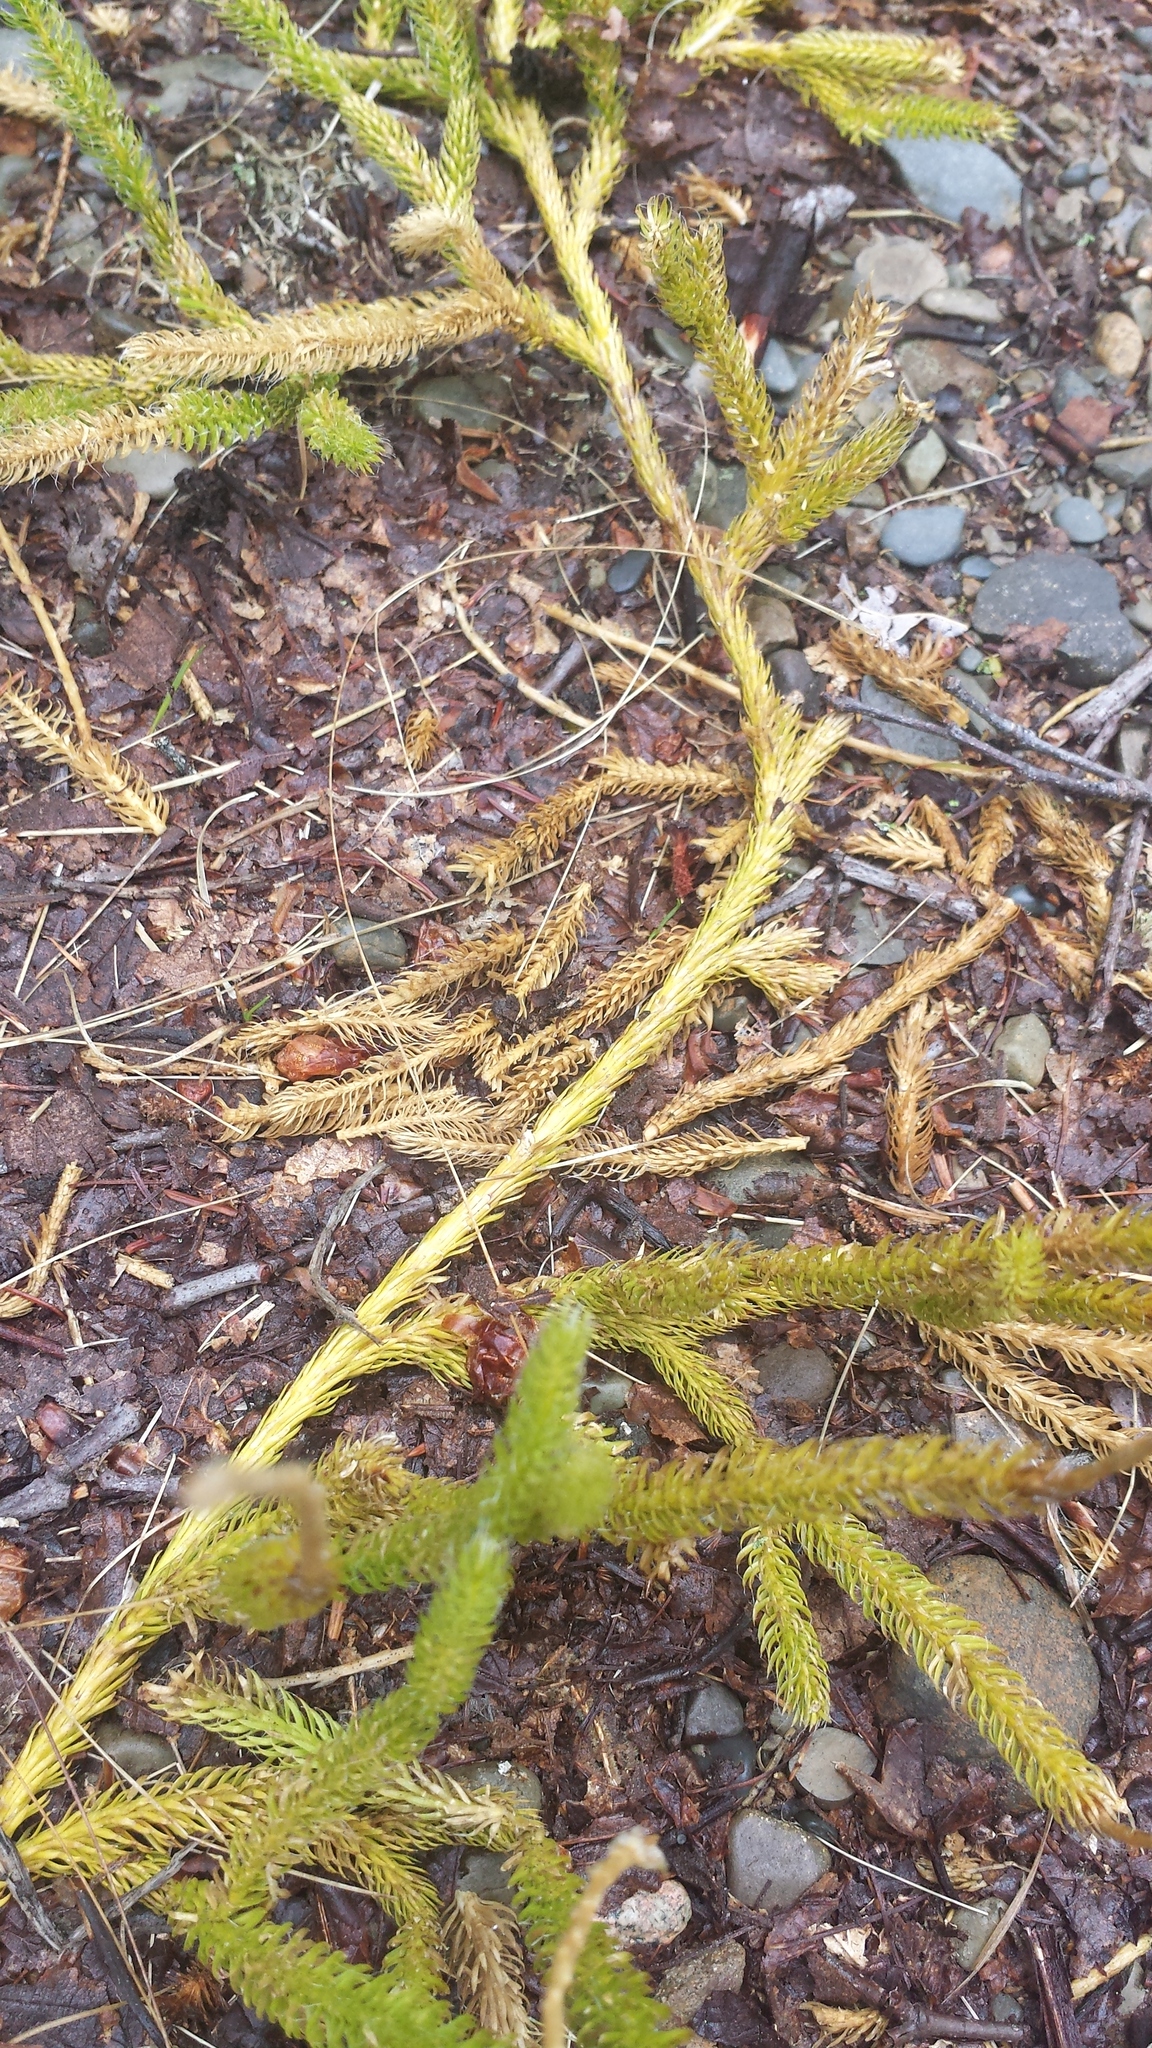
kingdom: Plantae
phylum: Tracheophyta
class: Lycopodiopsida
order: Lycopodiales
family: Lycopodiaceae
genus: Lycopodium
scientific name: Lycopodium clavatum
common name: Stag's-horn clubmoss
